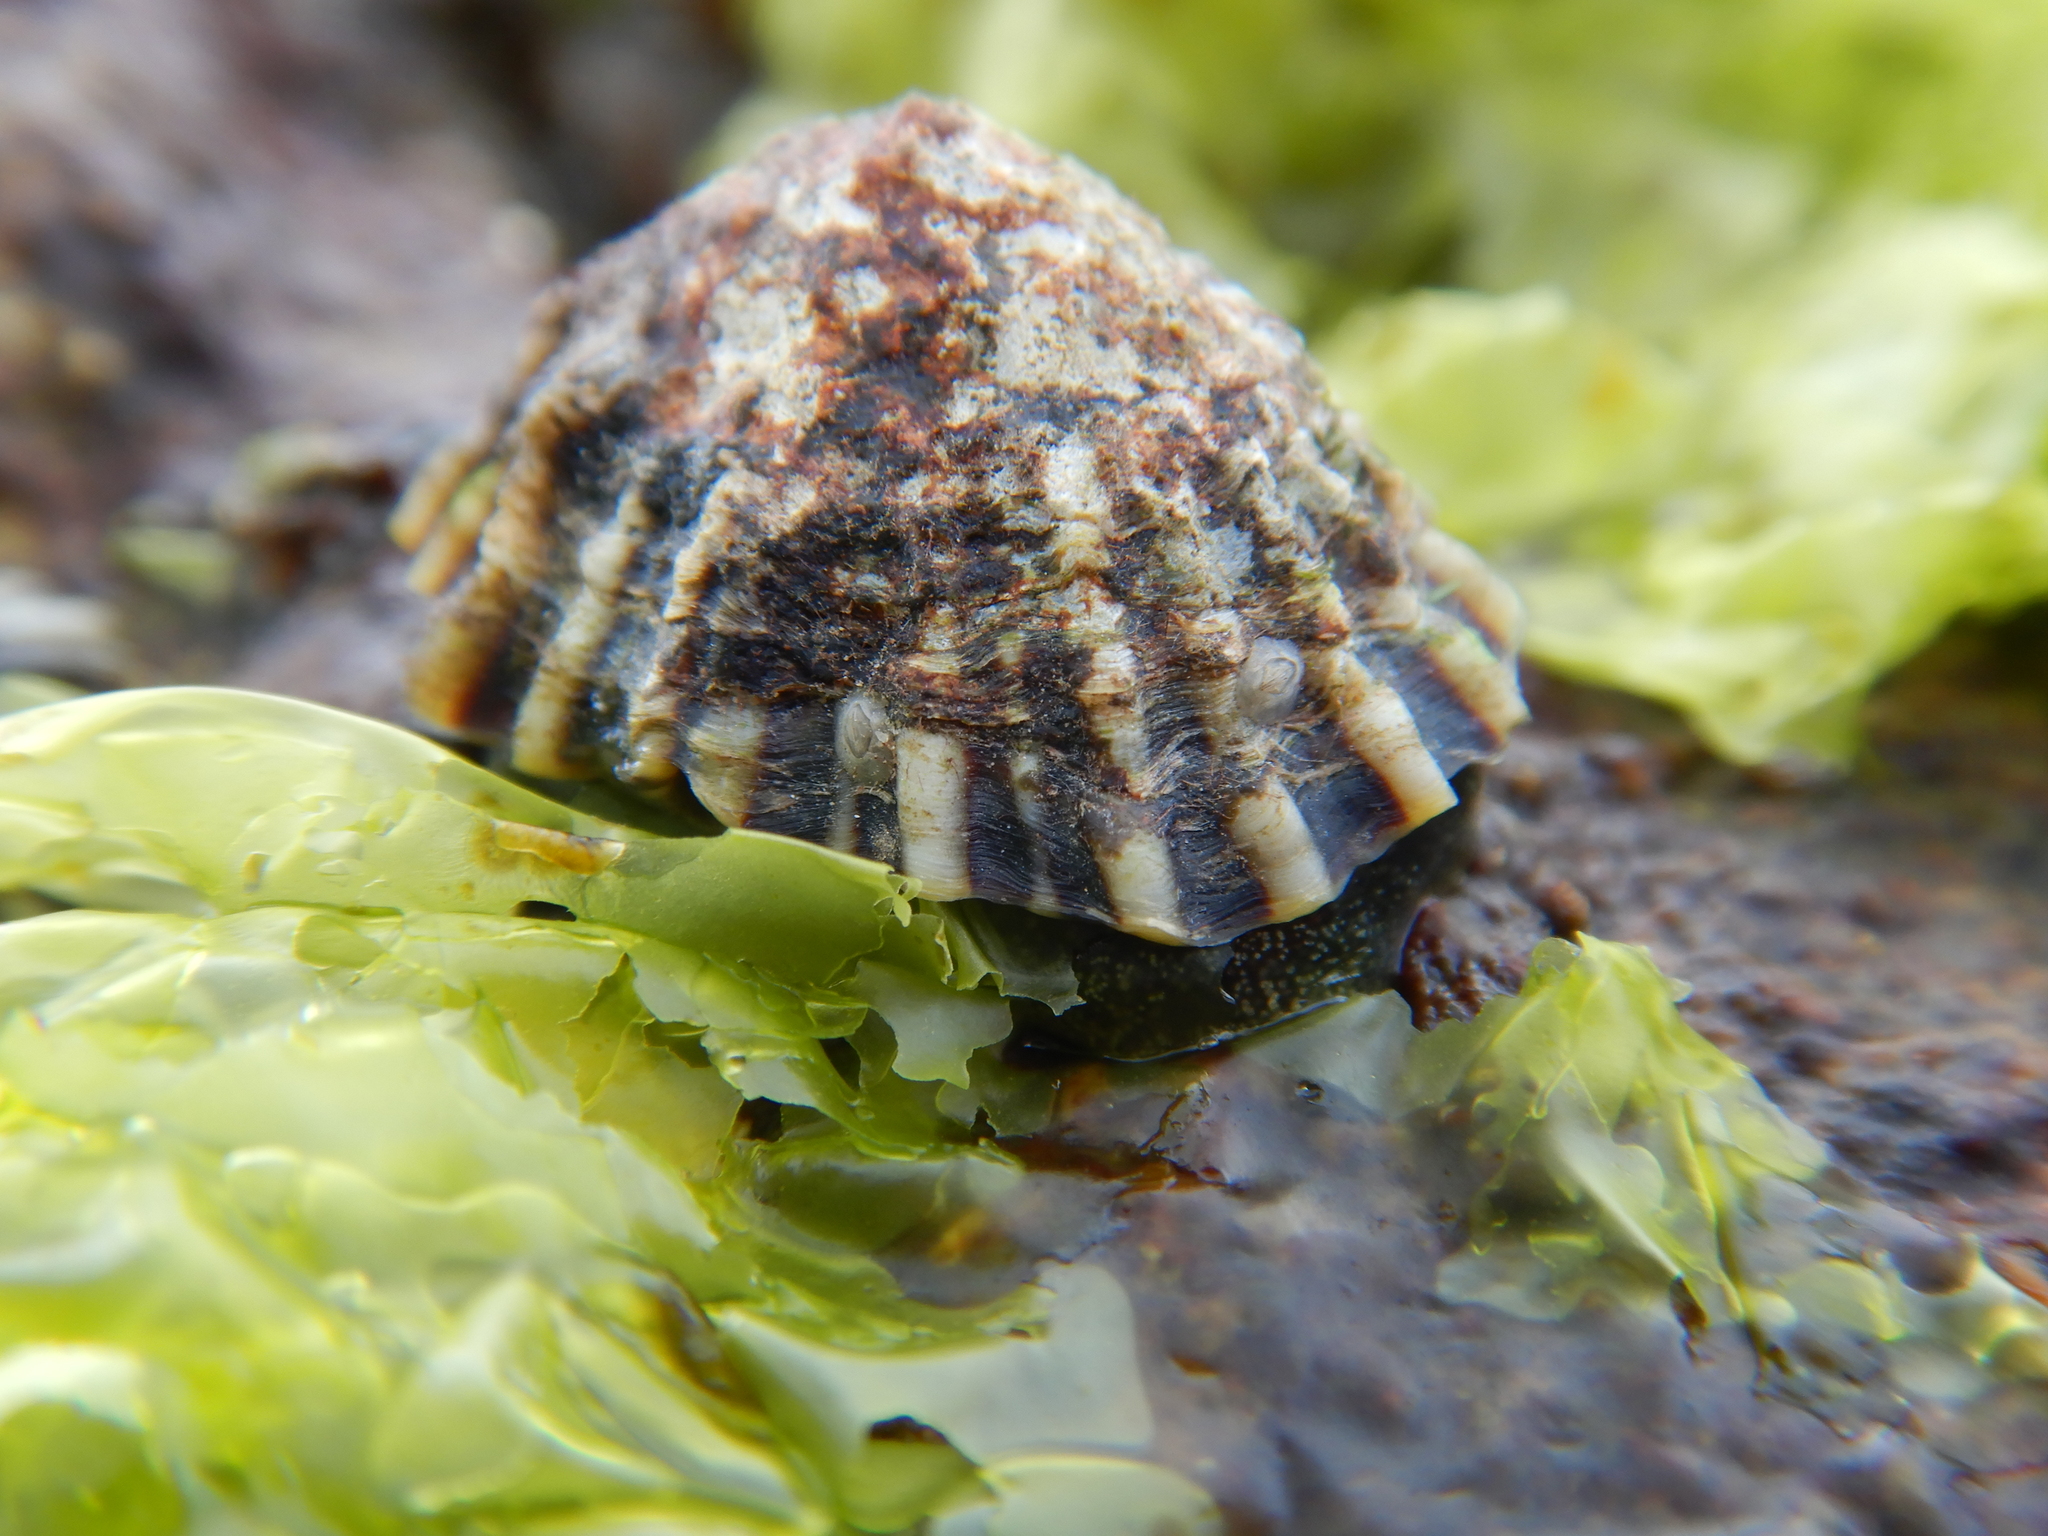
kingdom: Animalia
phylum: Mollusca
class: Gastropoda
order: Siphonariida
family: Siphonariidae
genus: Siphonaria
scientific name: Siphonaria diemenensis
